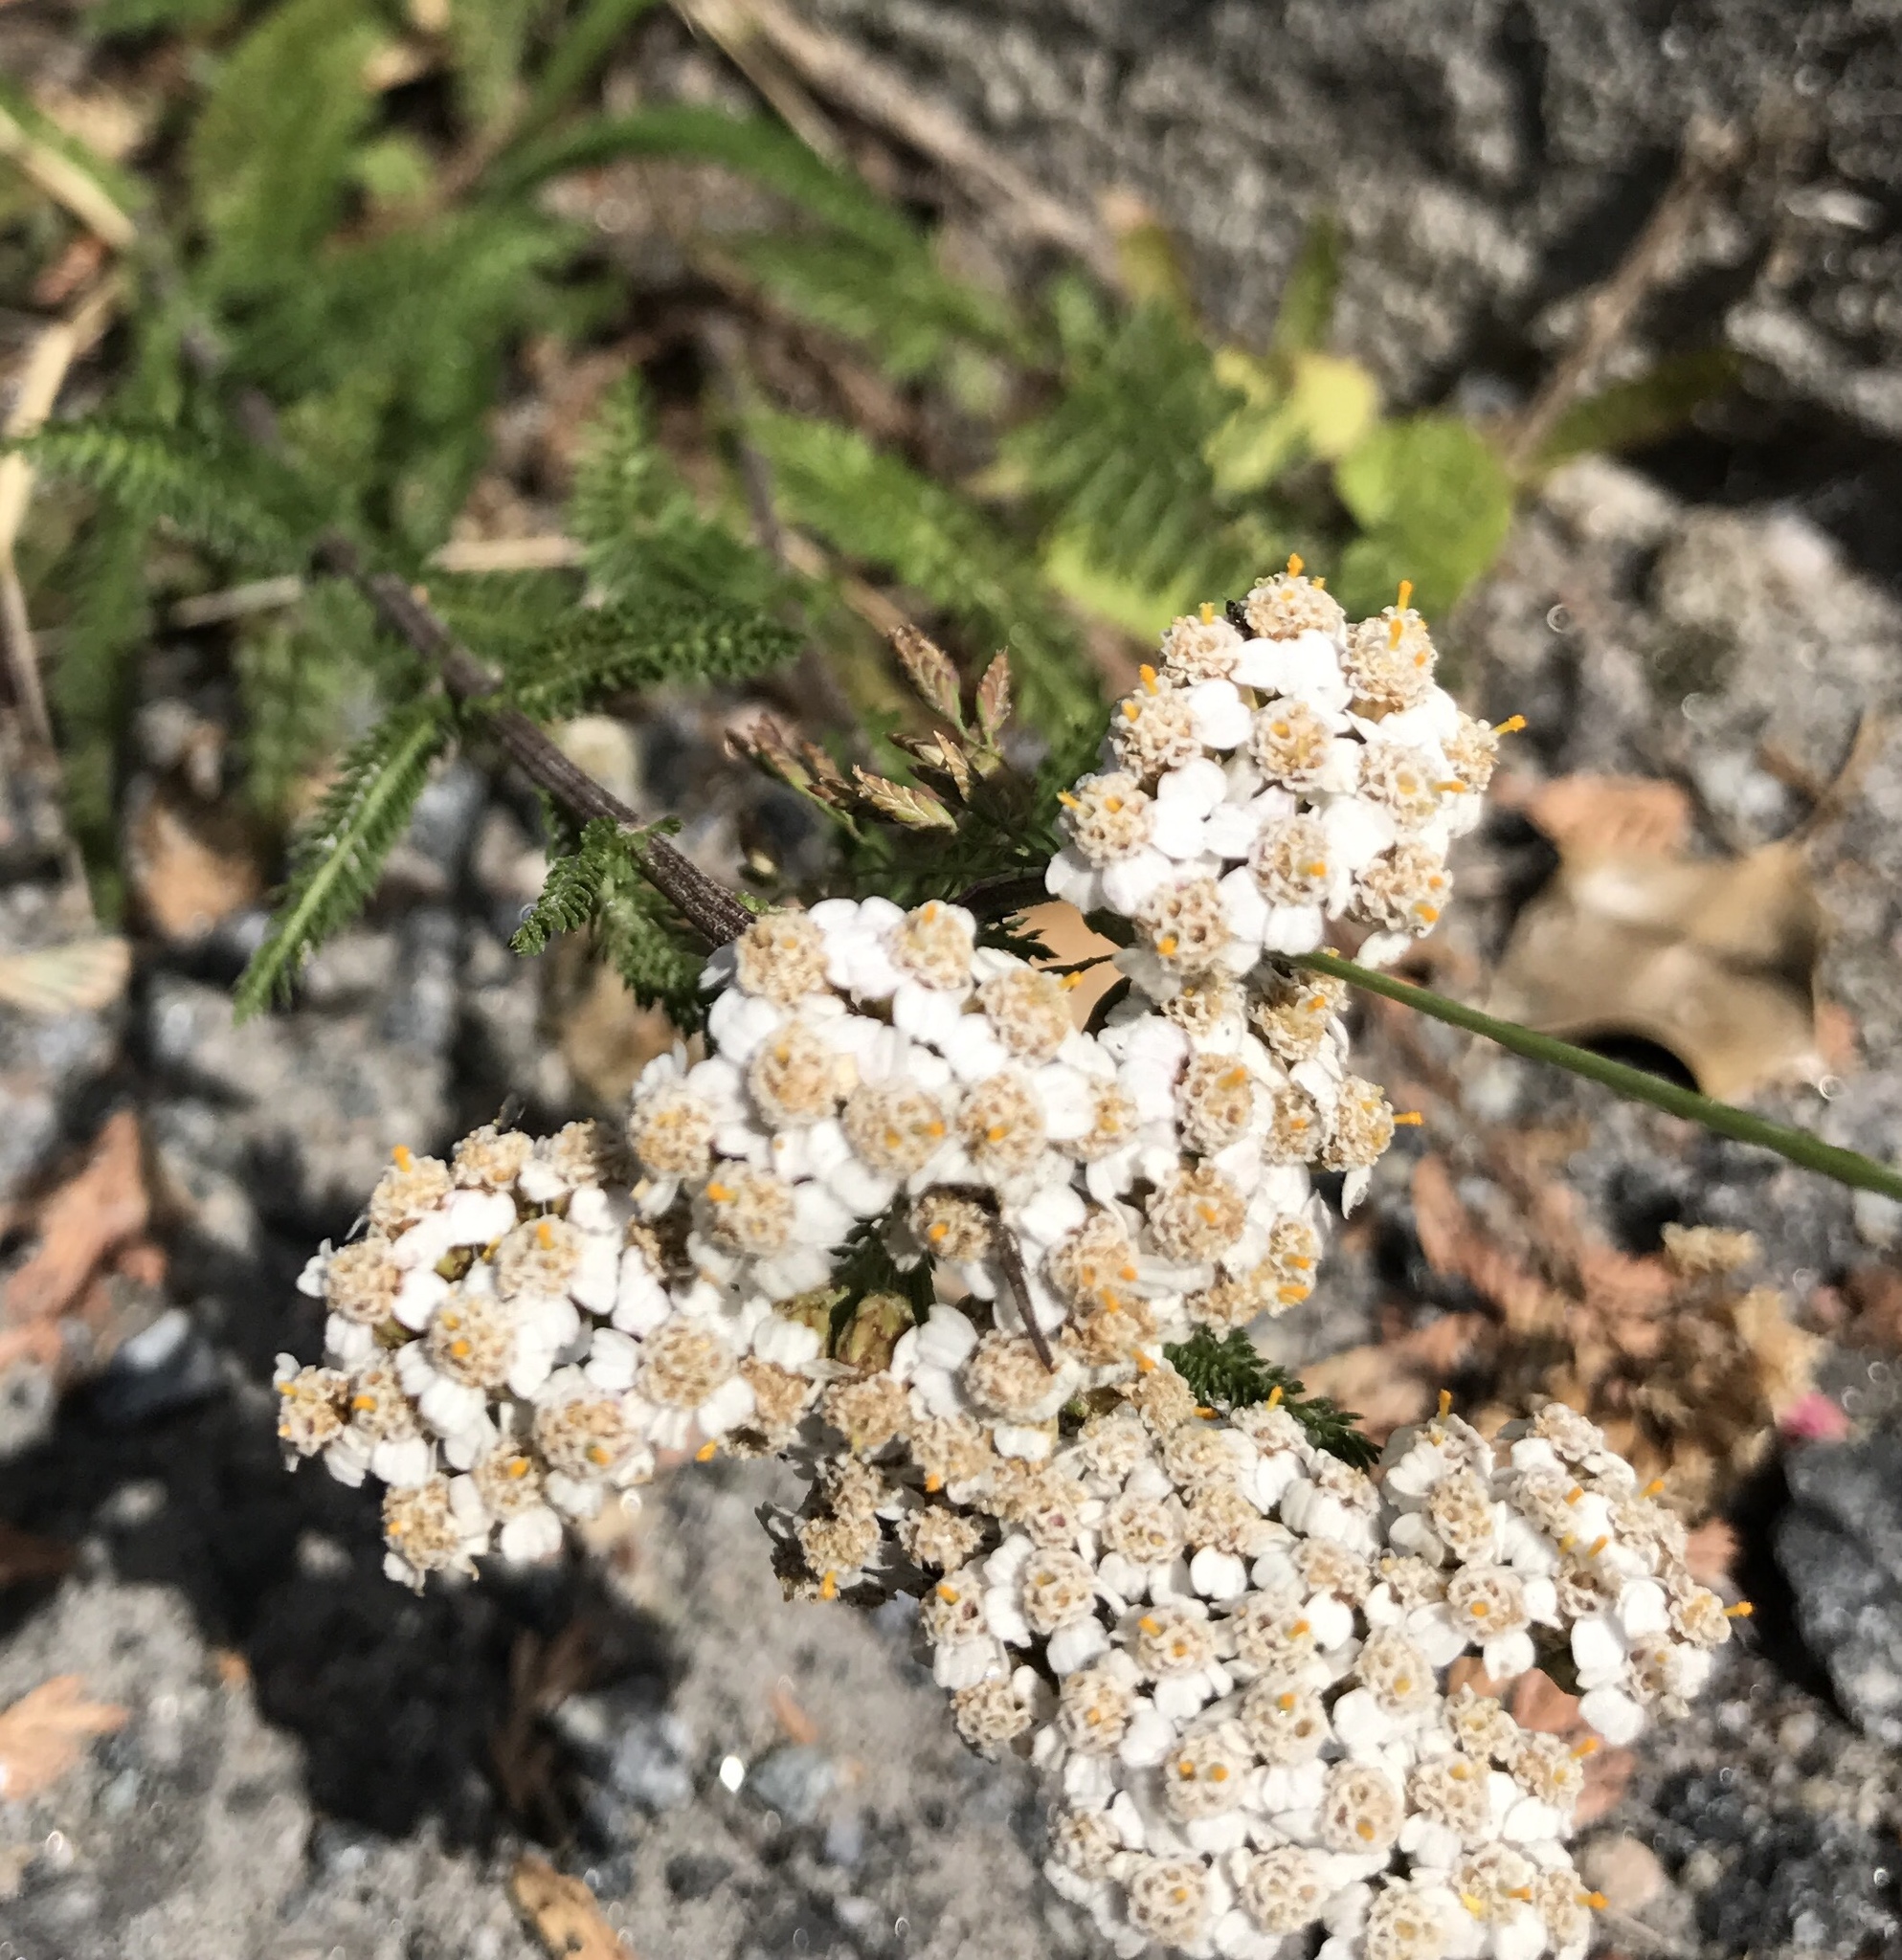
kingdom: Plantae
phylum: Tracheophyta
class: Magnoliopsida
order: Asterales
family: Asteraceae
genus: Achillea
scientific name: Achillea millefolium
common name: Yarrow
